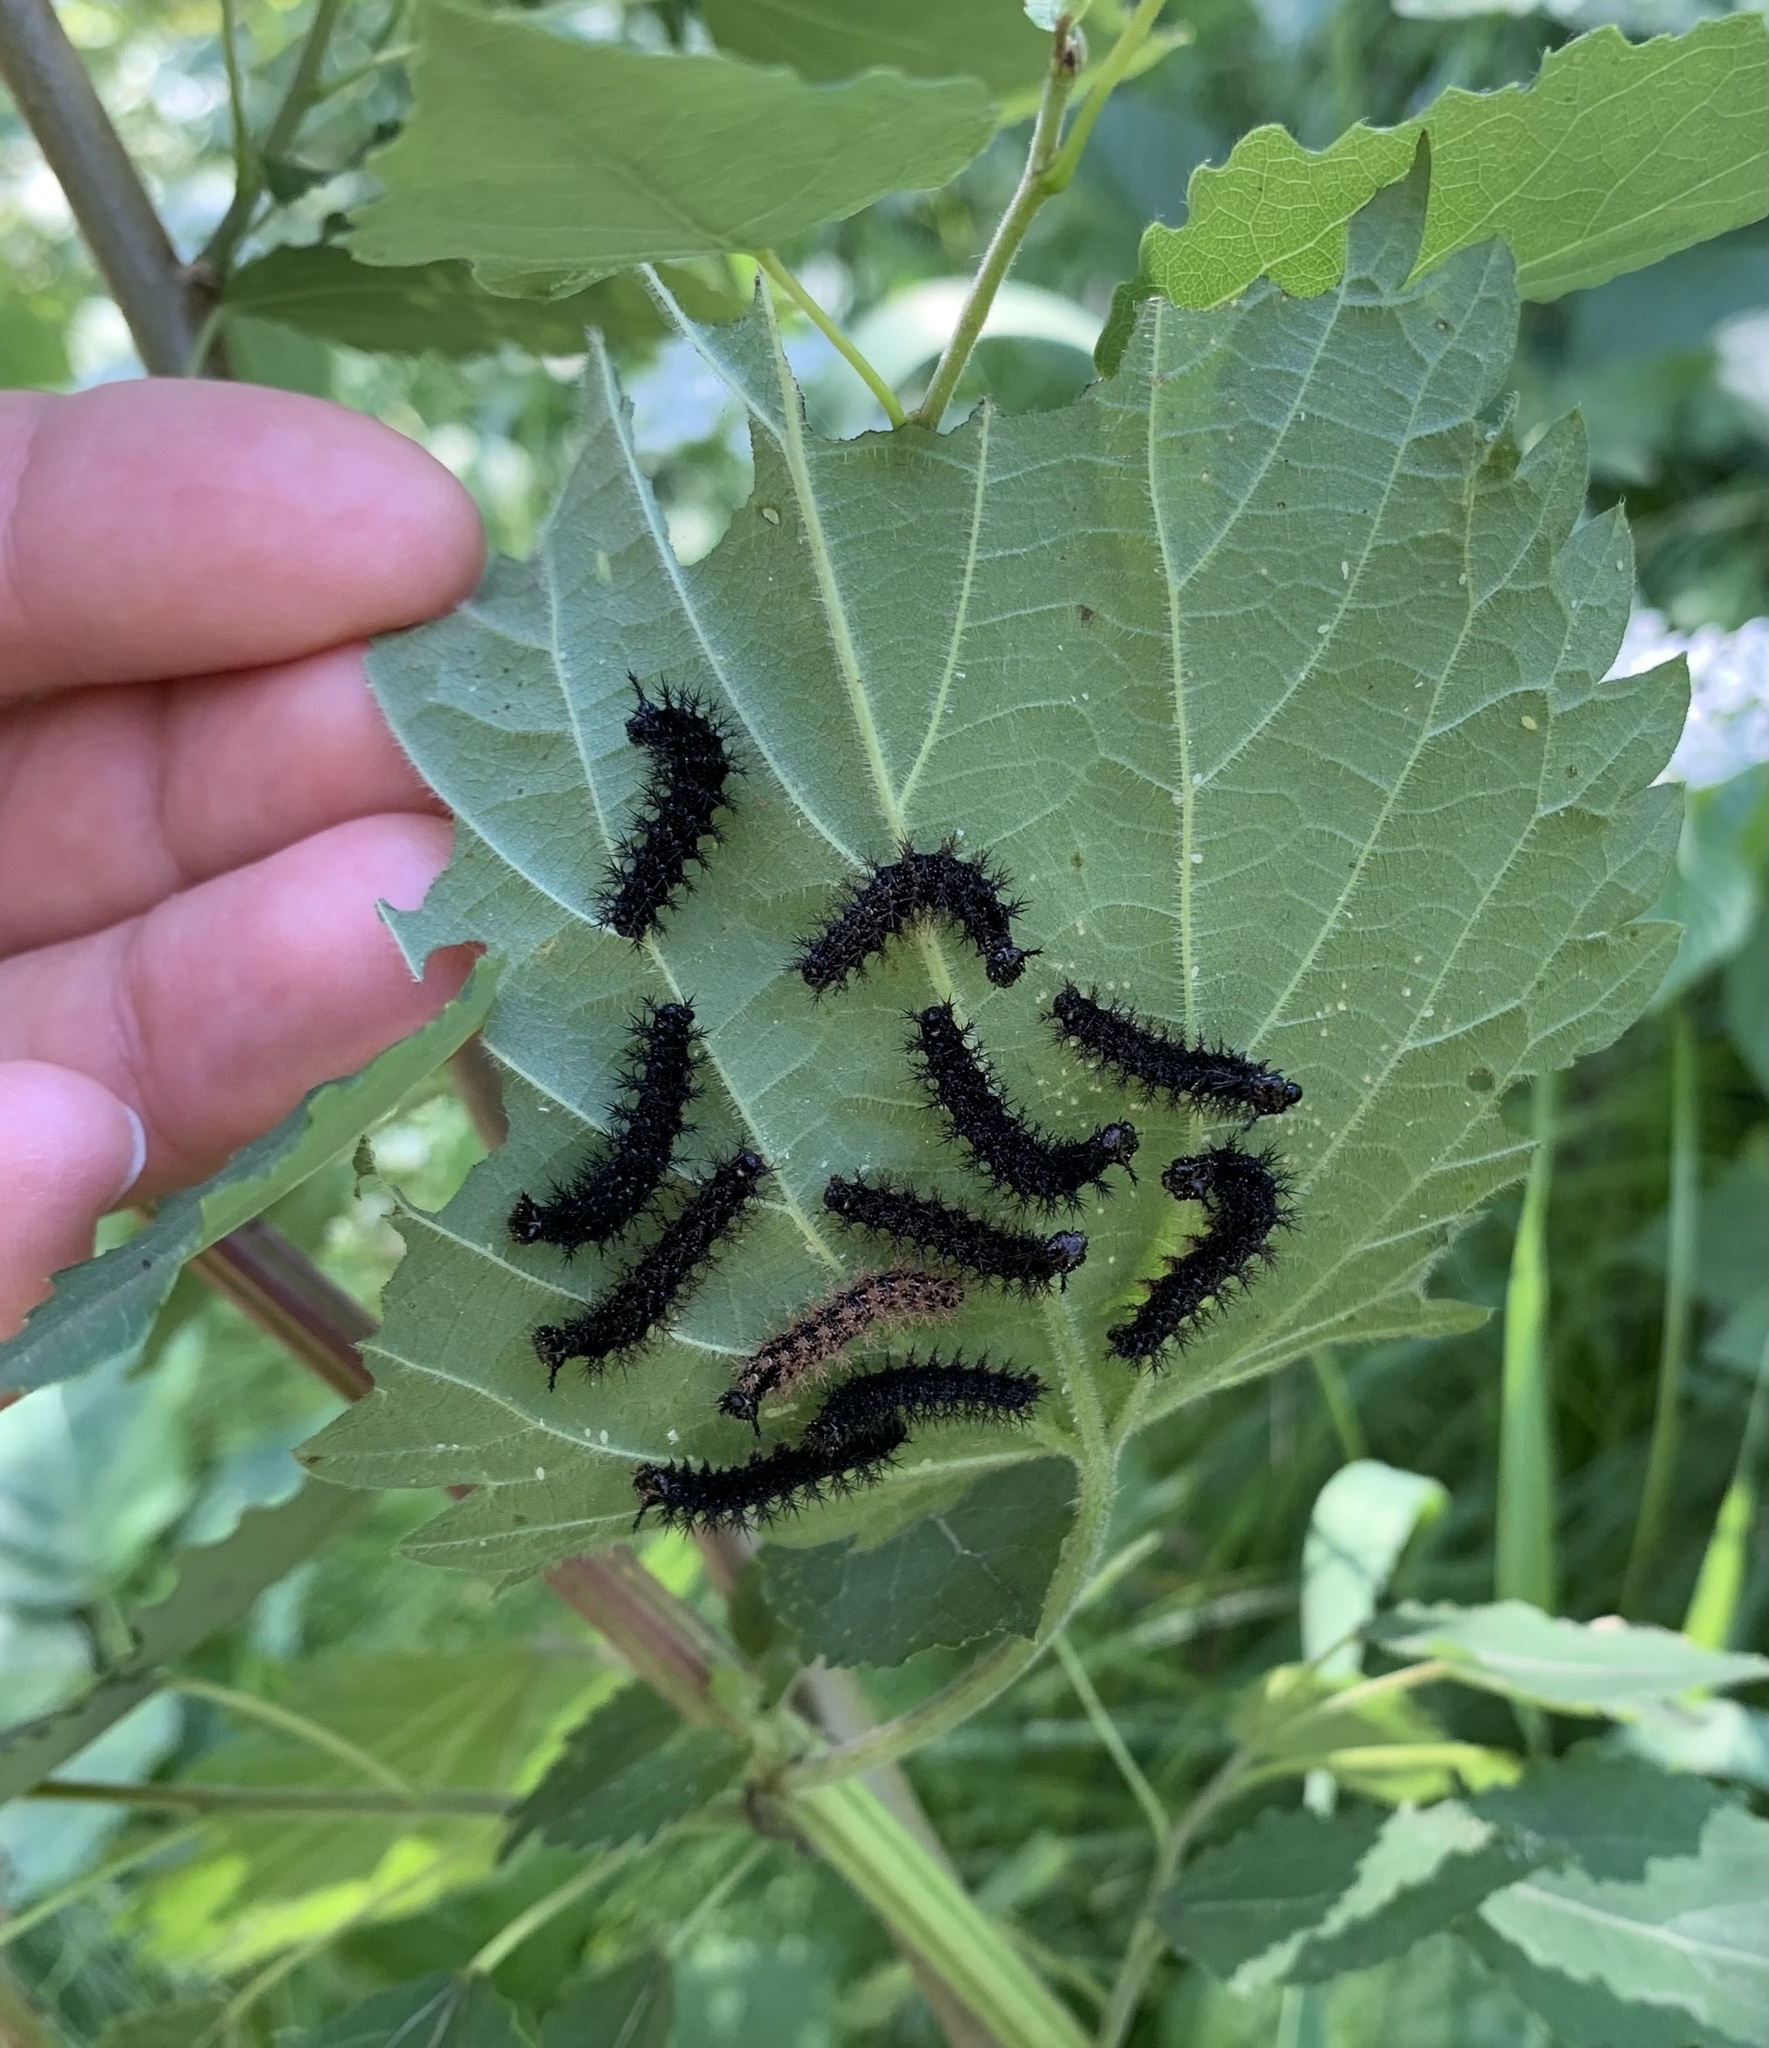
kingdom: Animalia
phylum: Arthropoda
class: Insecta
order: Lepidoptera
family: Nymphalidae
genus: Araschnia
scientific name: Araschnia levana
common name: Map butterfly
